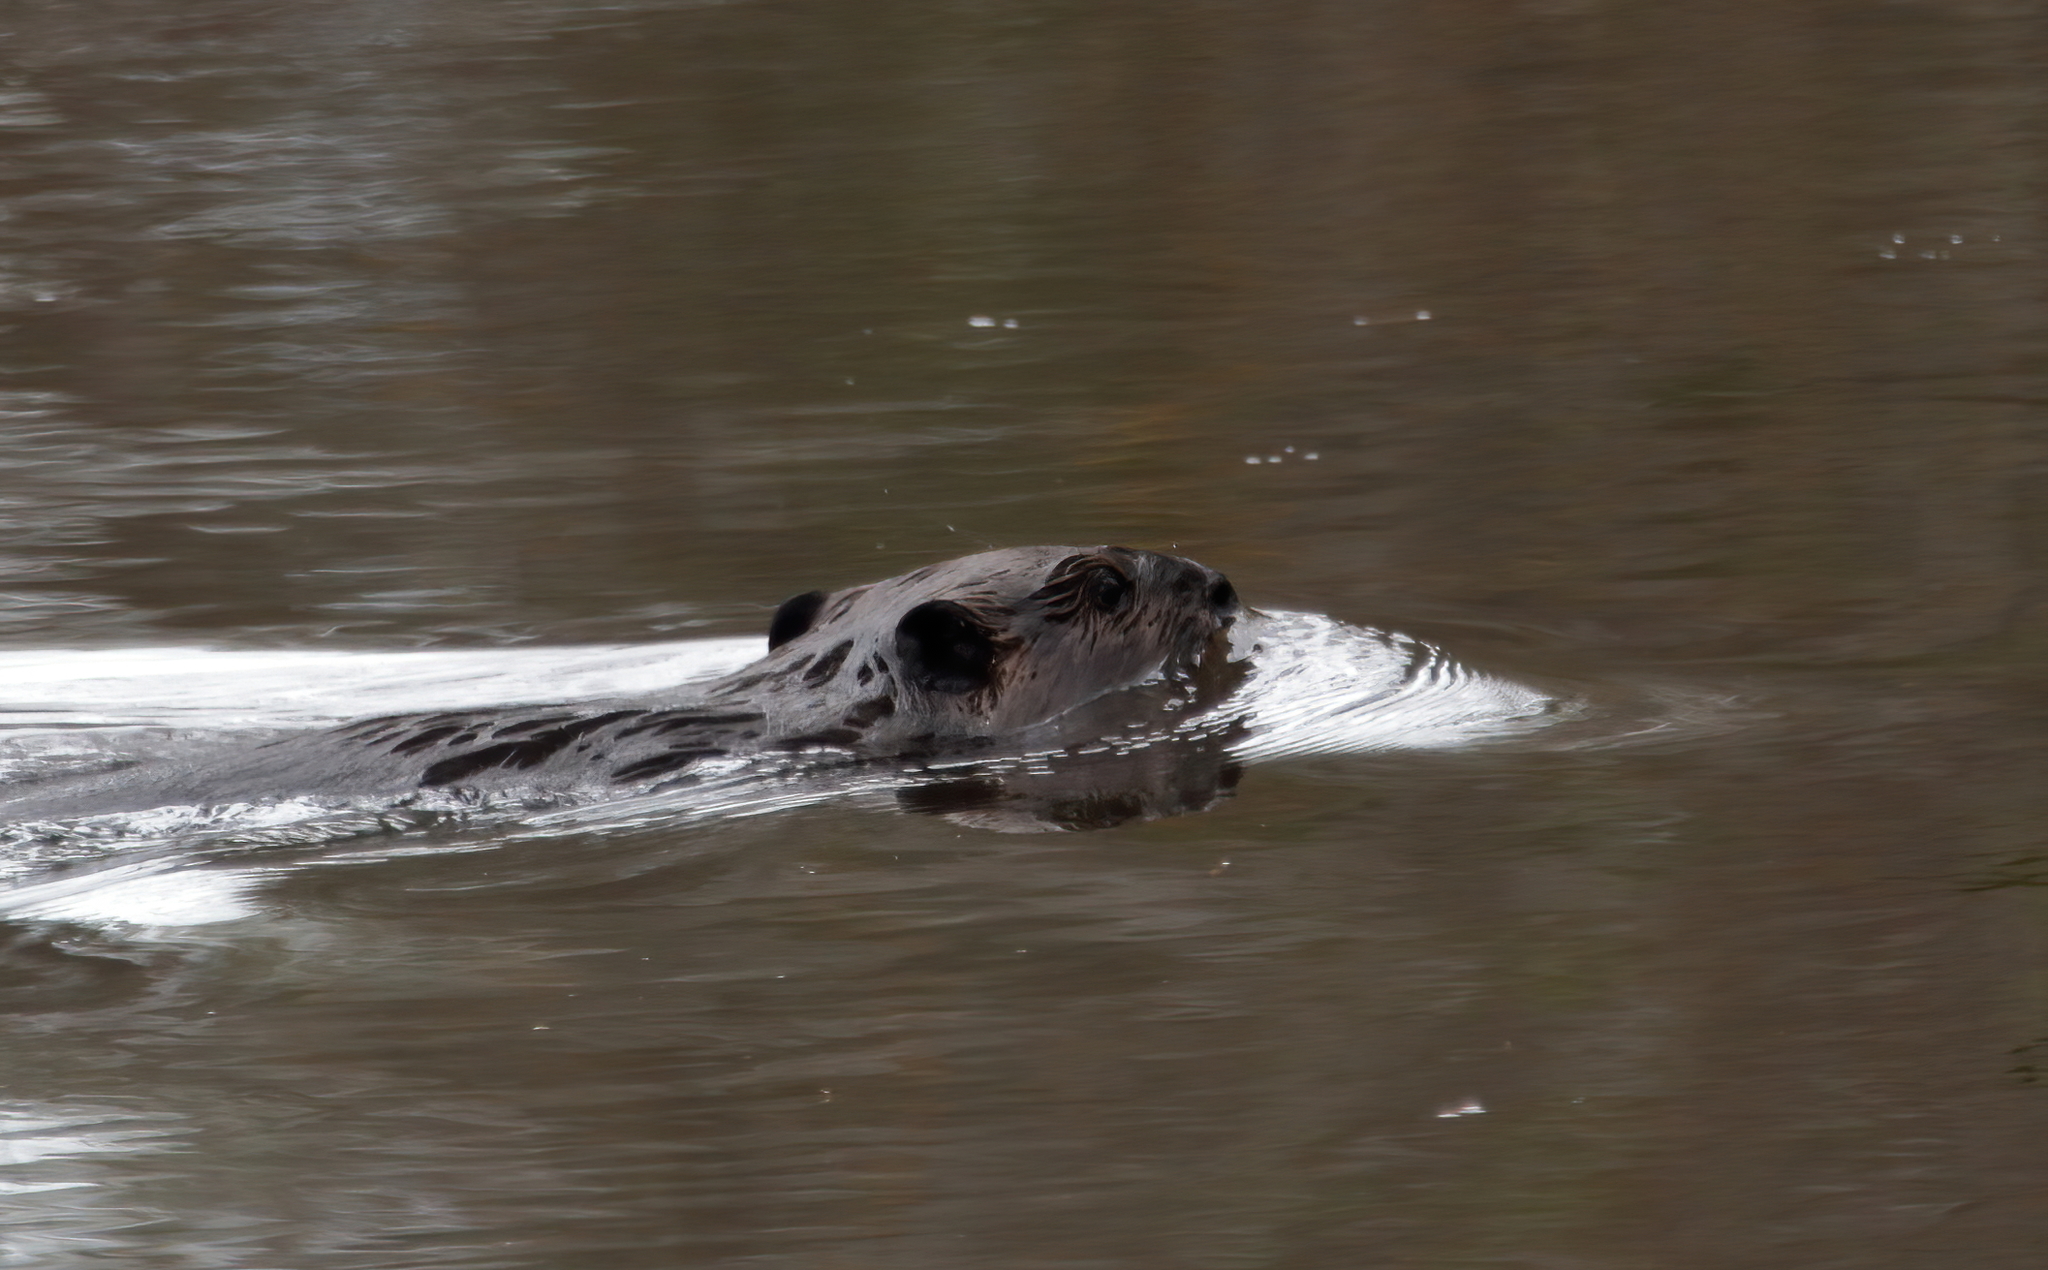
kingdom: Animalia
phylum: Chordata
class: Mammalia
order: Rodentia
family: Castoridae
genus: Castor
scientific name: Castor canadensis
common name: American beaver
